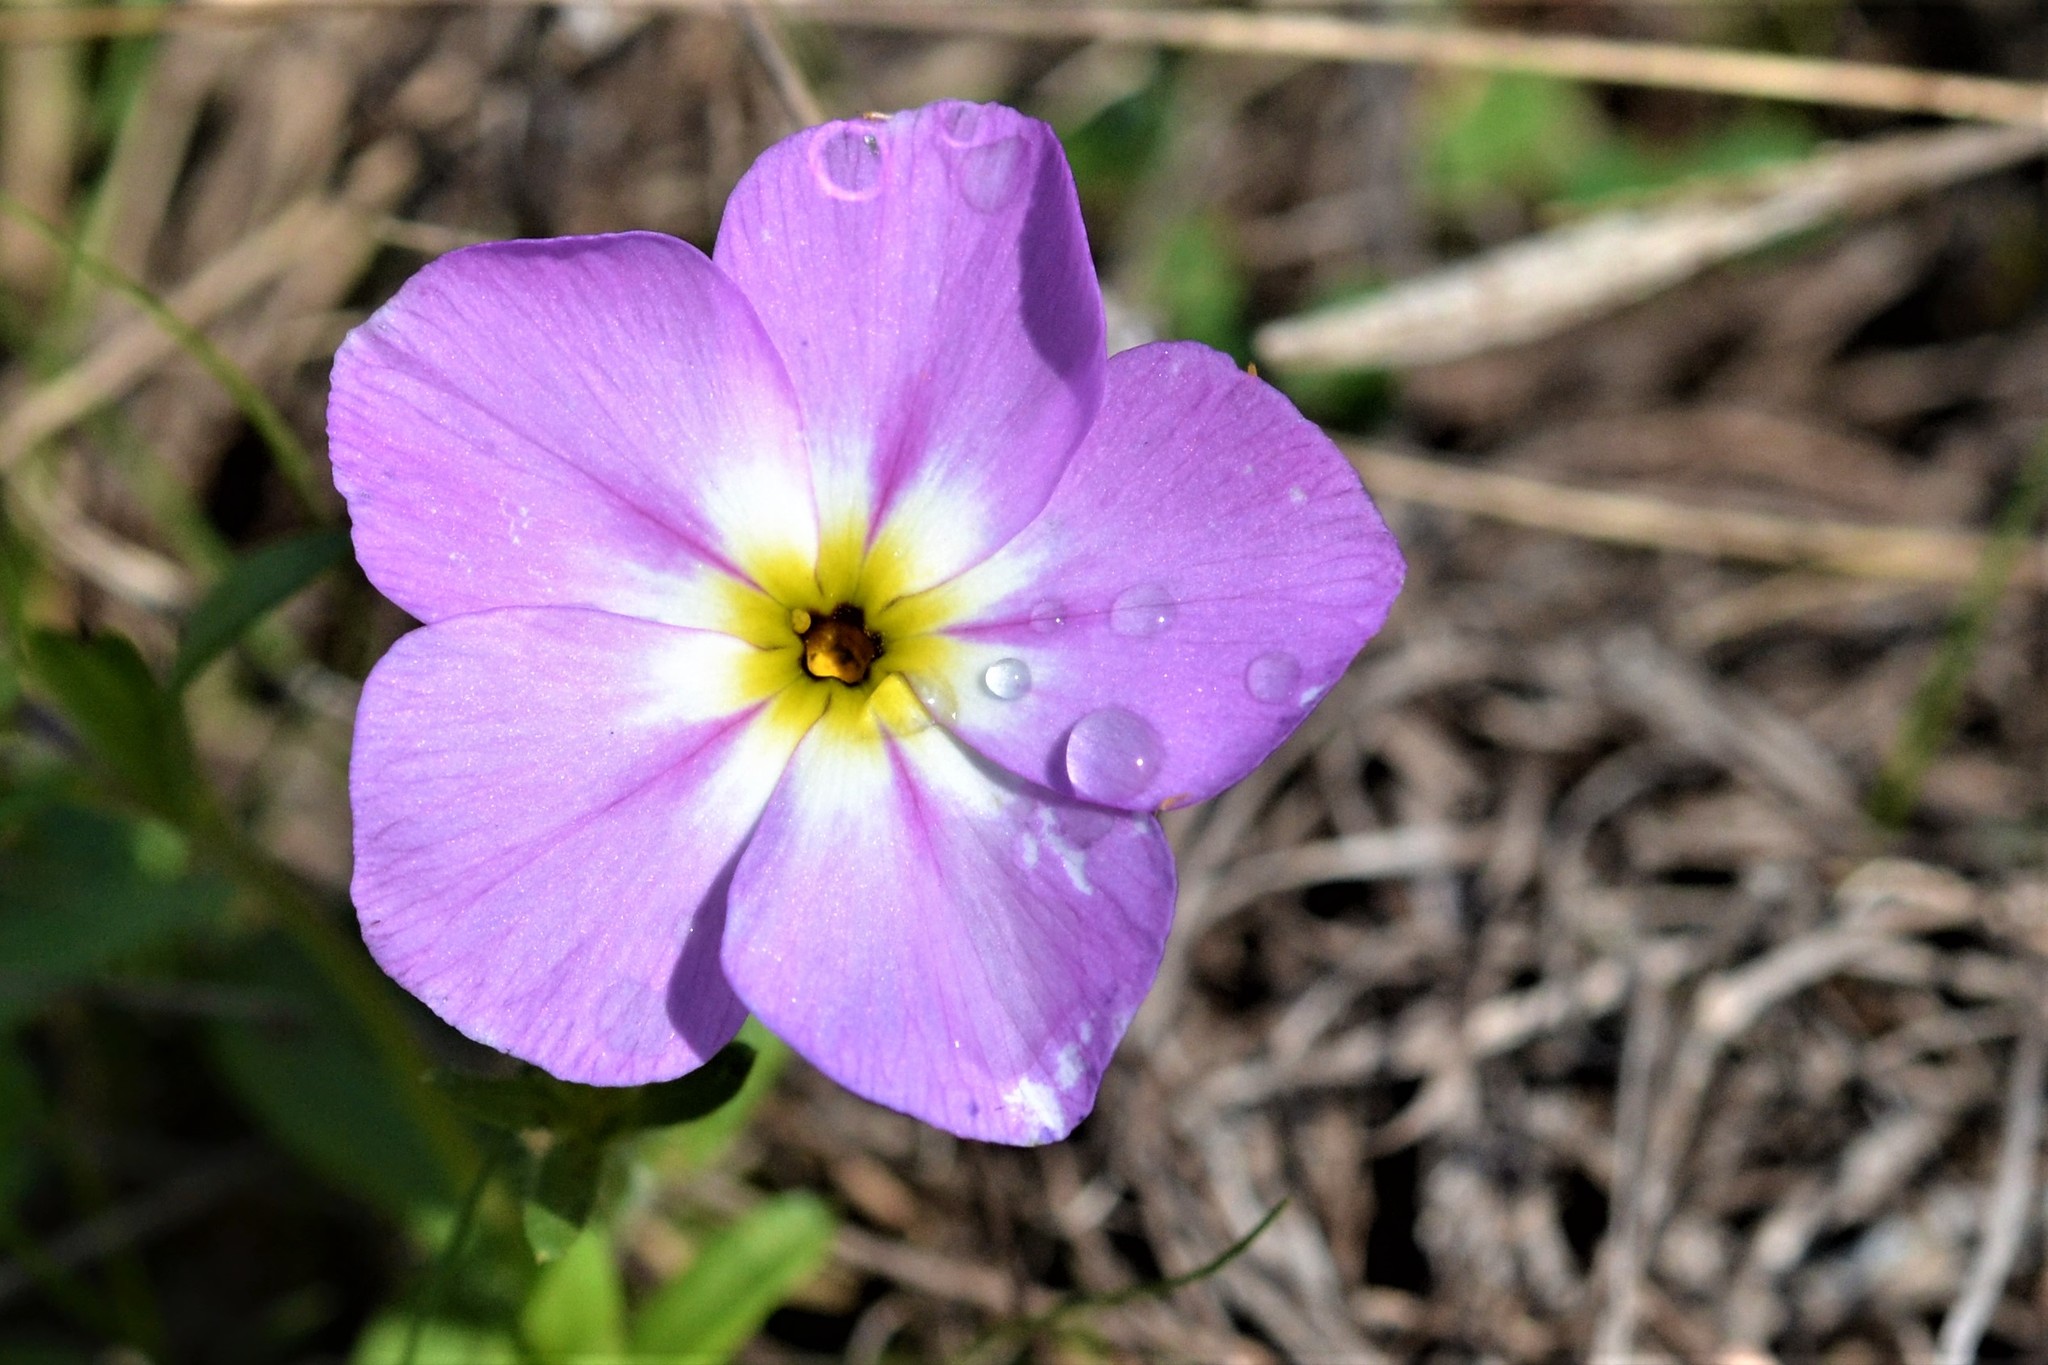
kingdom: Plantae
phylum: Tracheophyta
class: Magnoliopsida
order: Ericales
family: Polemoniaceae
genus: Phlox
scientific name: Phlox roemeriana
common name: Roemer's phlox
